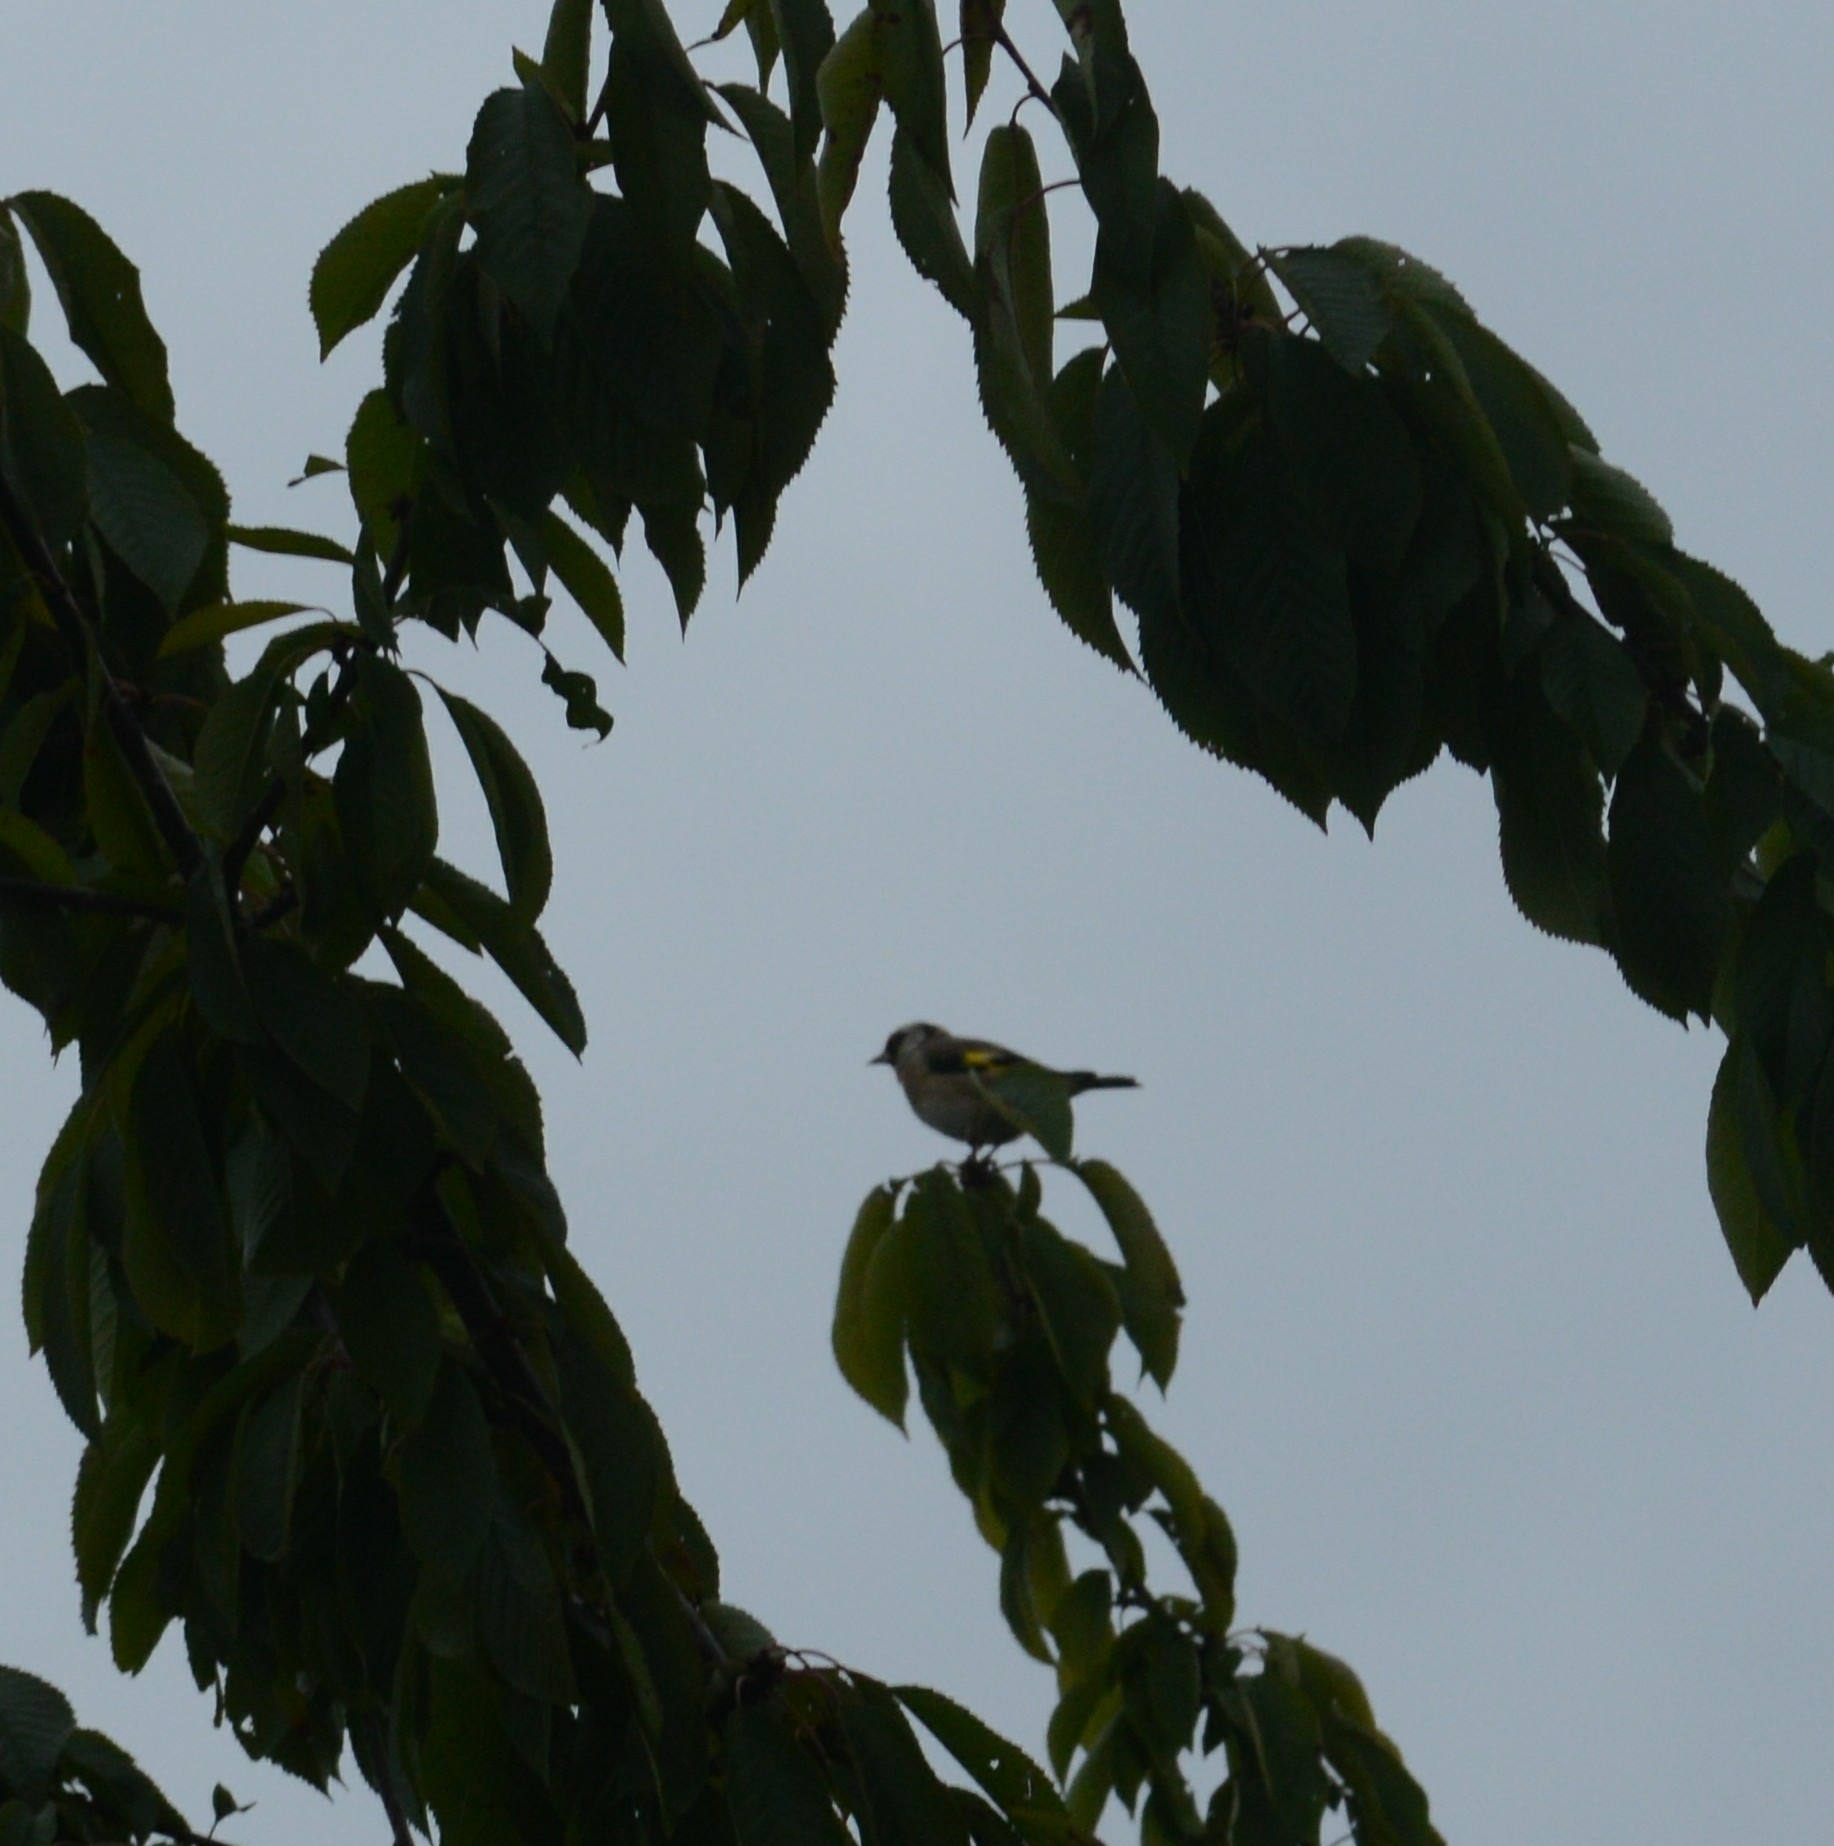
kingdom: Animalia
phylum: Chordata
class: Aves
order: Passeriformes
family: Fringillidae
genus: Carduelis
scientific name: Carduelis carduelis
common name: European goldfinch
